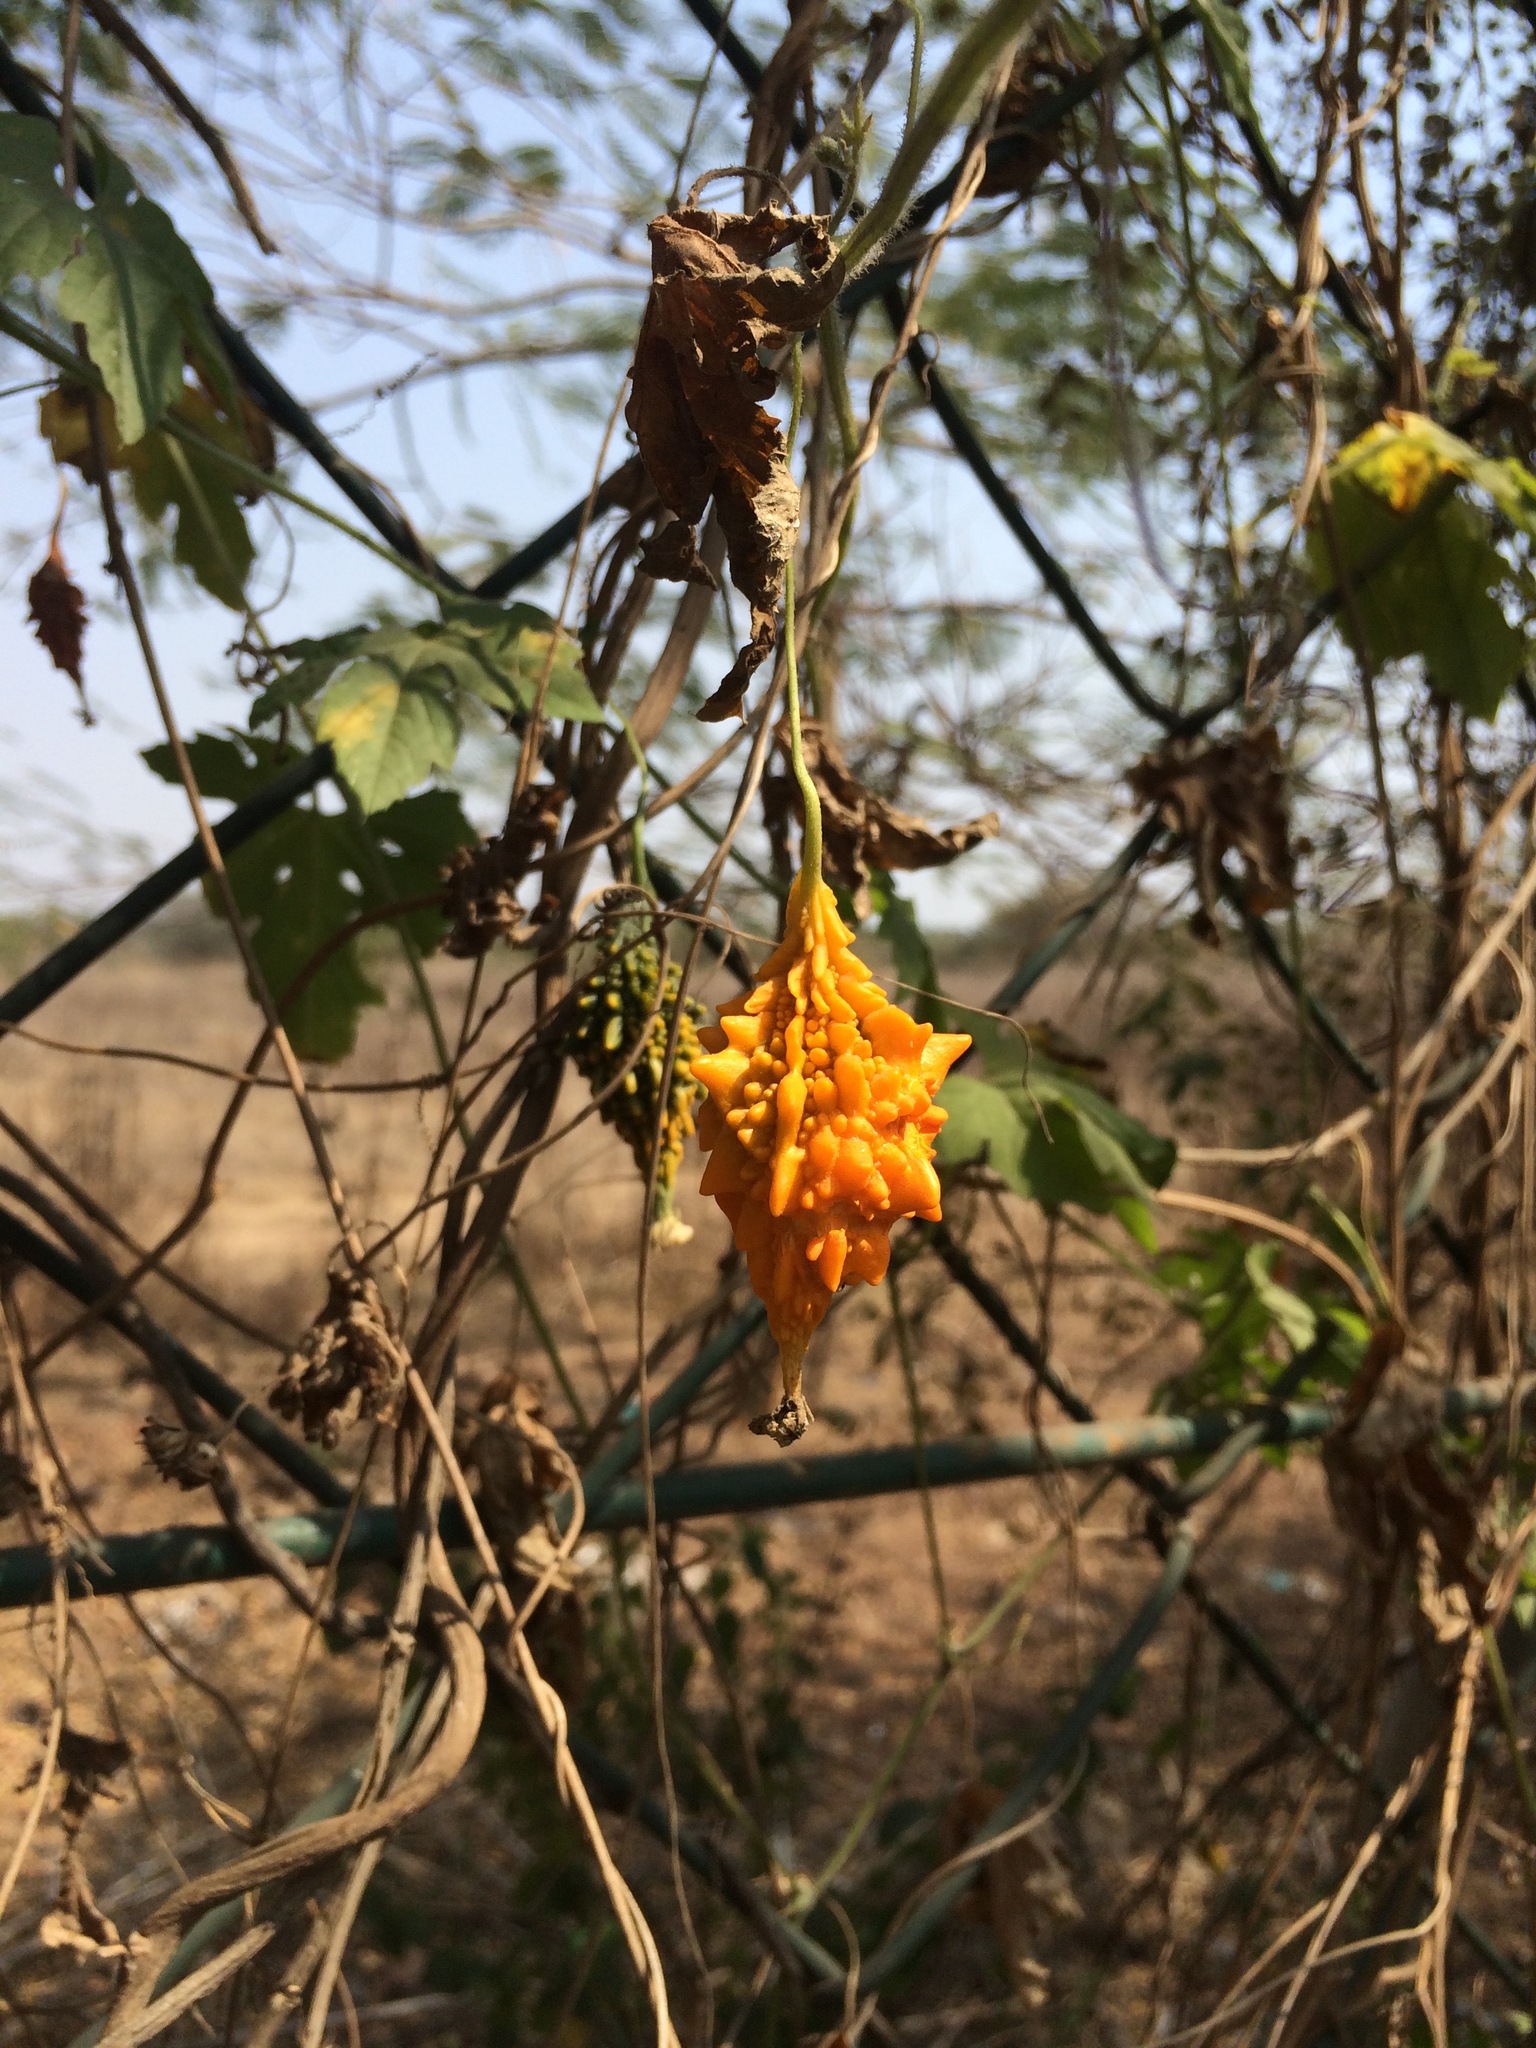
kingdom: Plantae
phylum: Tracheophyta
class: Magnoliopsida
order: Cucurbitales
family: Cucurbitaceae
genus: Momordica
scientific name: Momordica charantia
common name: Balsampear
